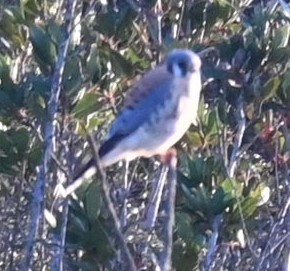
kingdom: Animalia
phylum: Chordata
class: Aves
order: Falconiformes
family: Falconidae
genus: Falco
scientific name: Falco sparverius
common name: American kestrel
